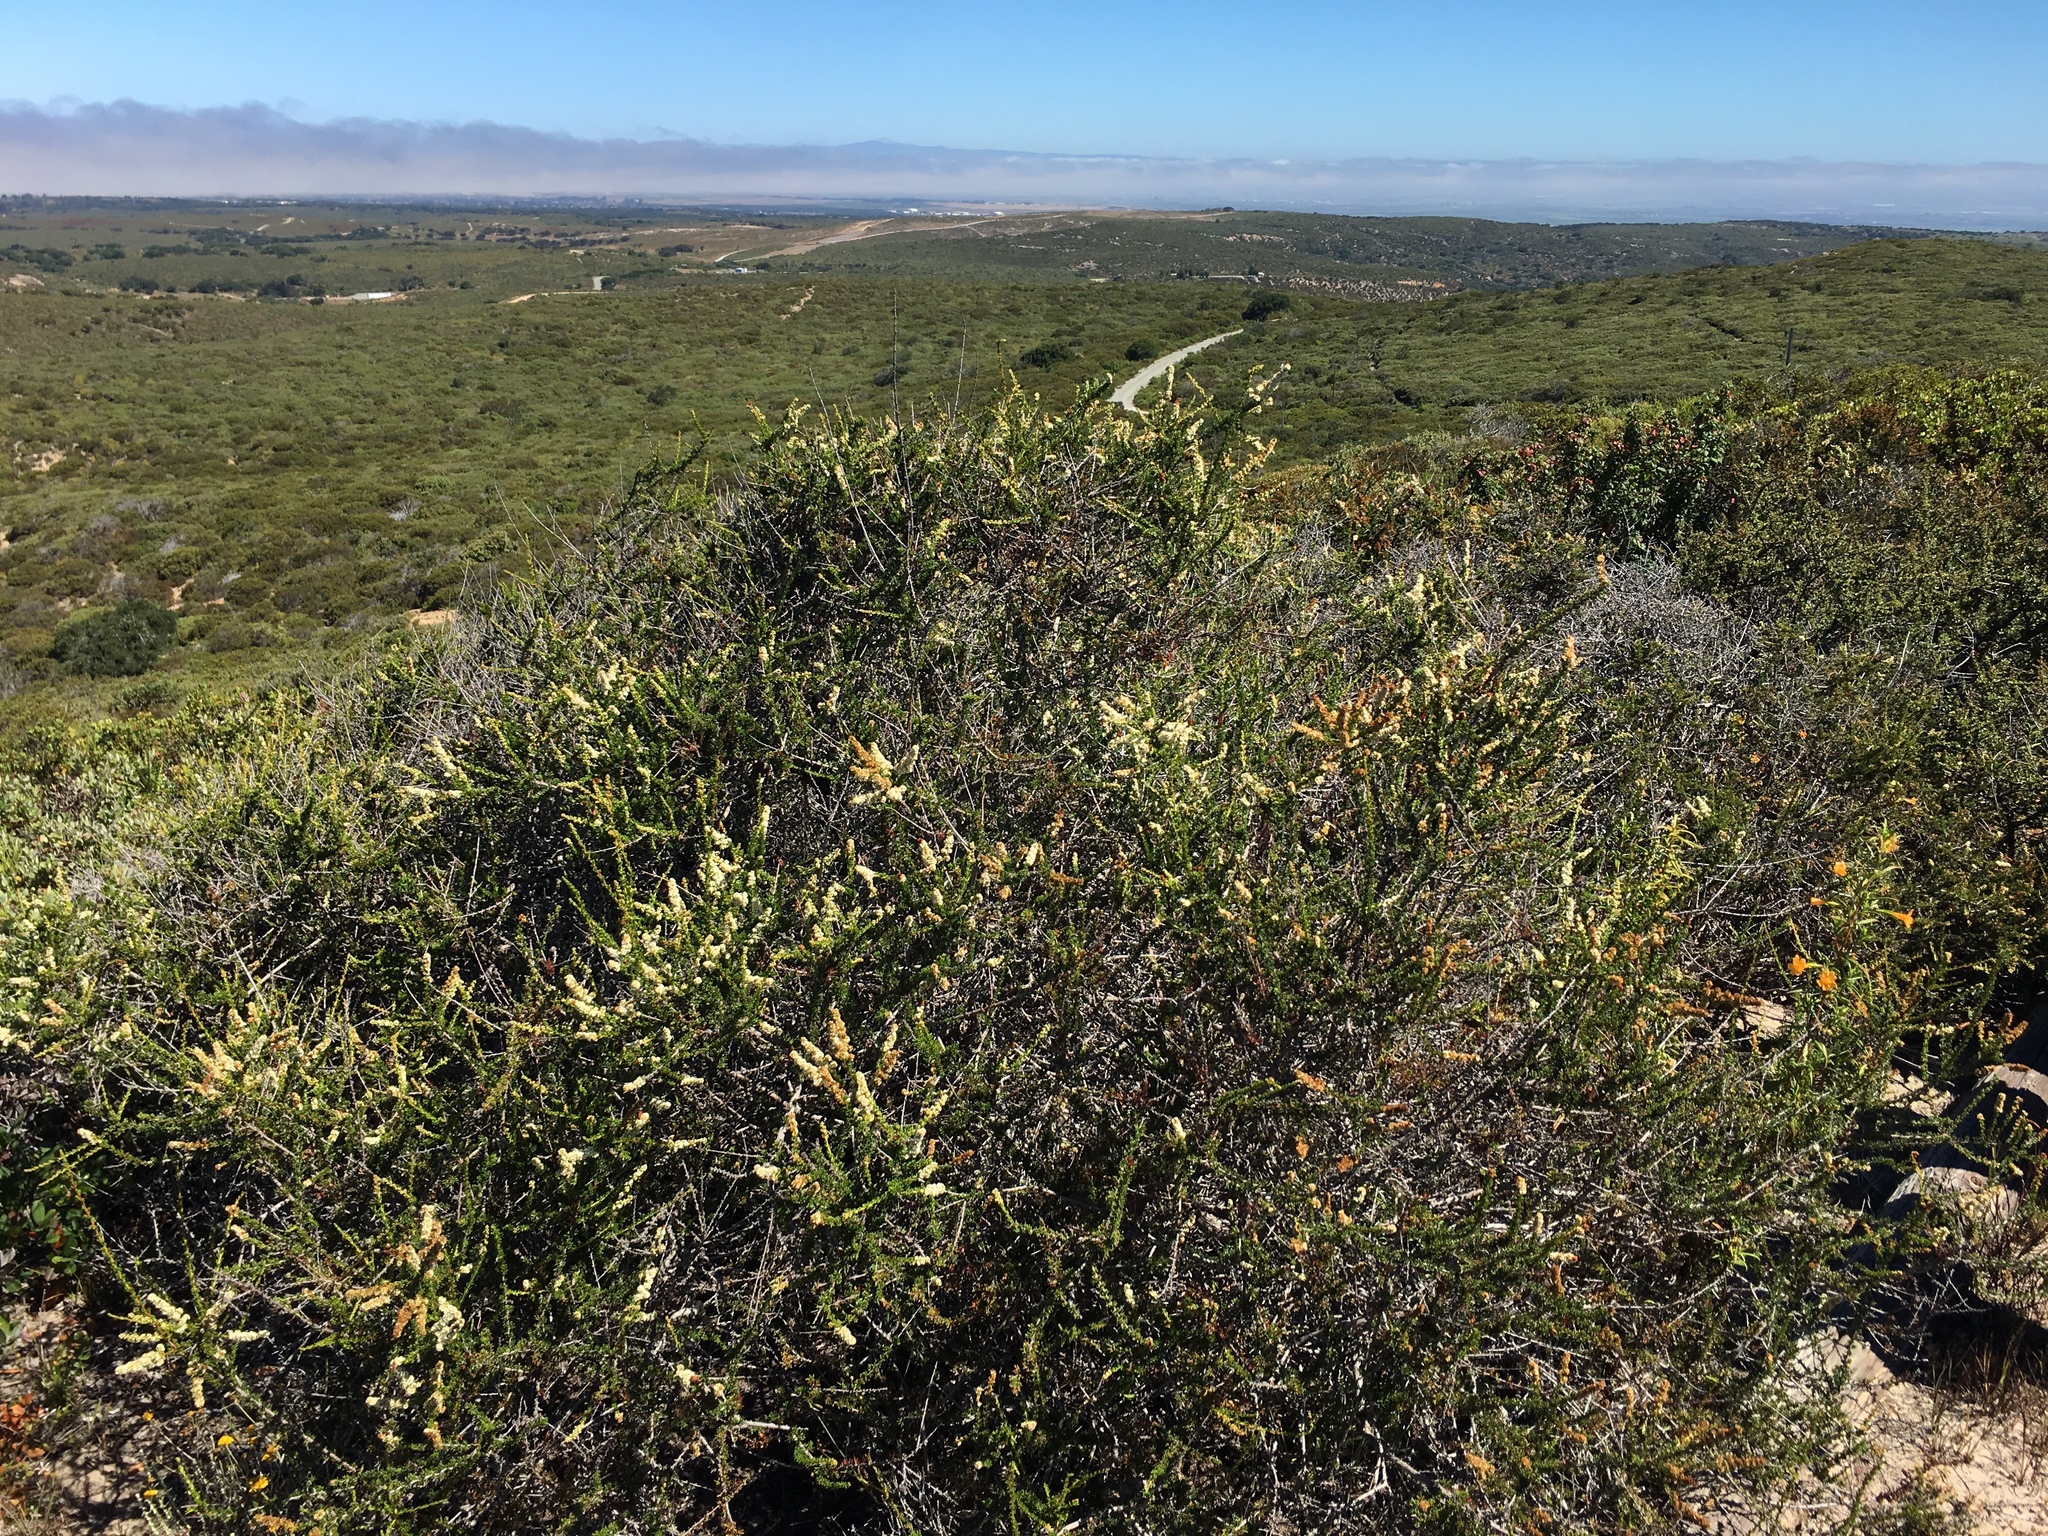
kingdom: Plantae
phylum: Tracheophyta
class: Magnoliopsida
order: Rosales
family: Rosaceae
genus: Adenostoma
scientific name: Adenostoma fasciculatum
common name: Chamise
